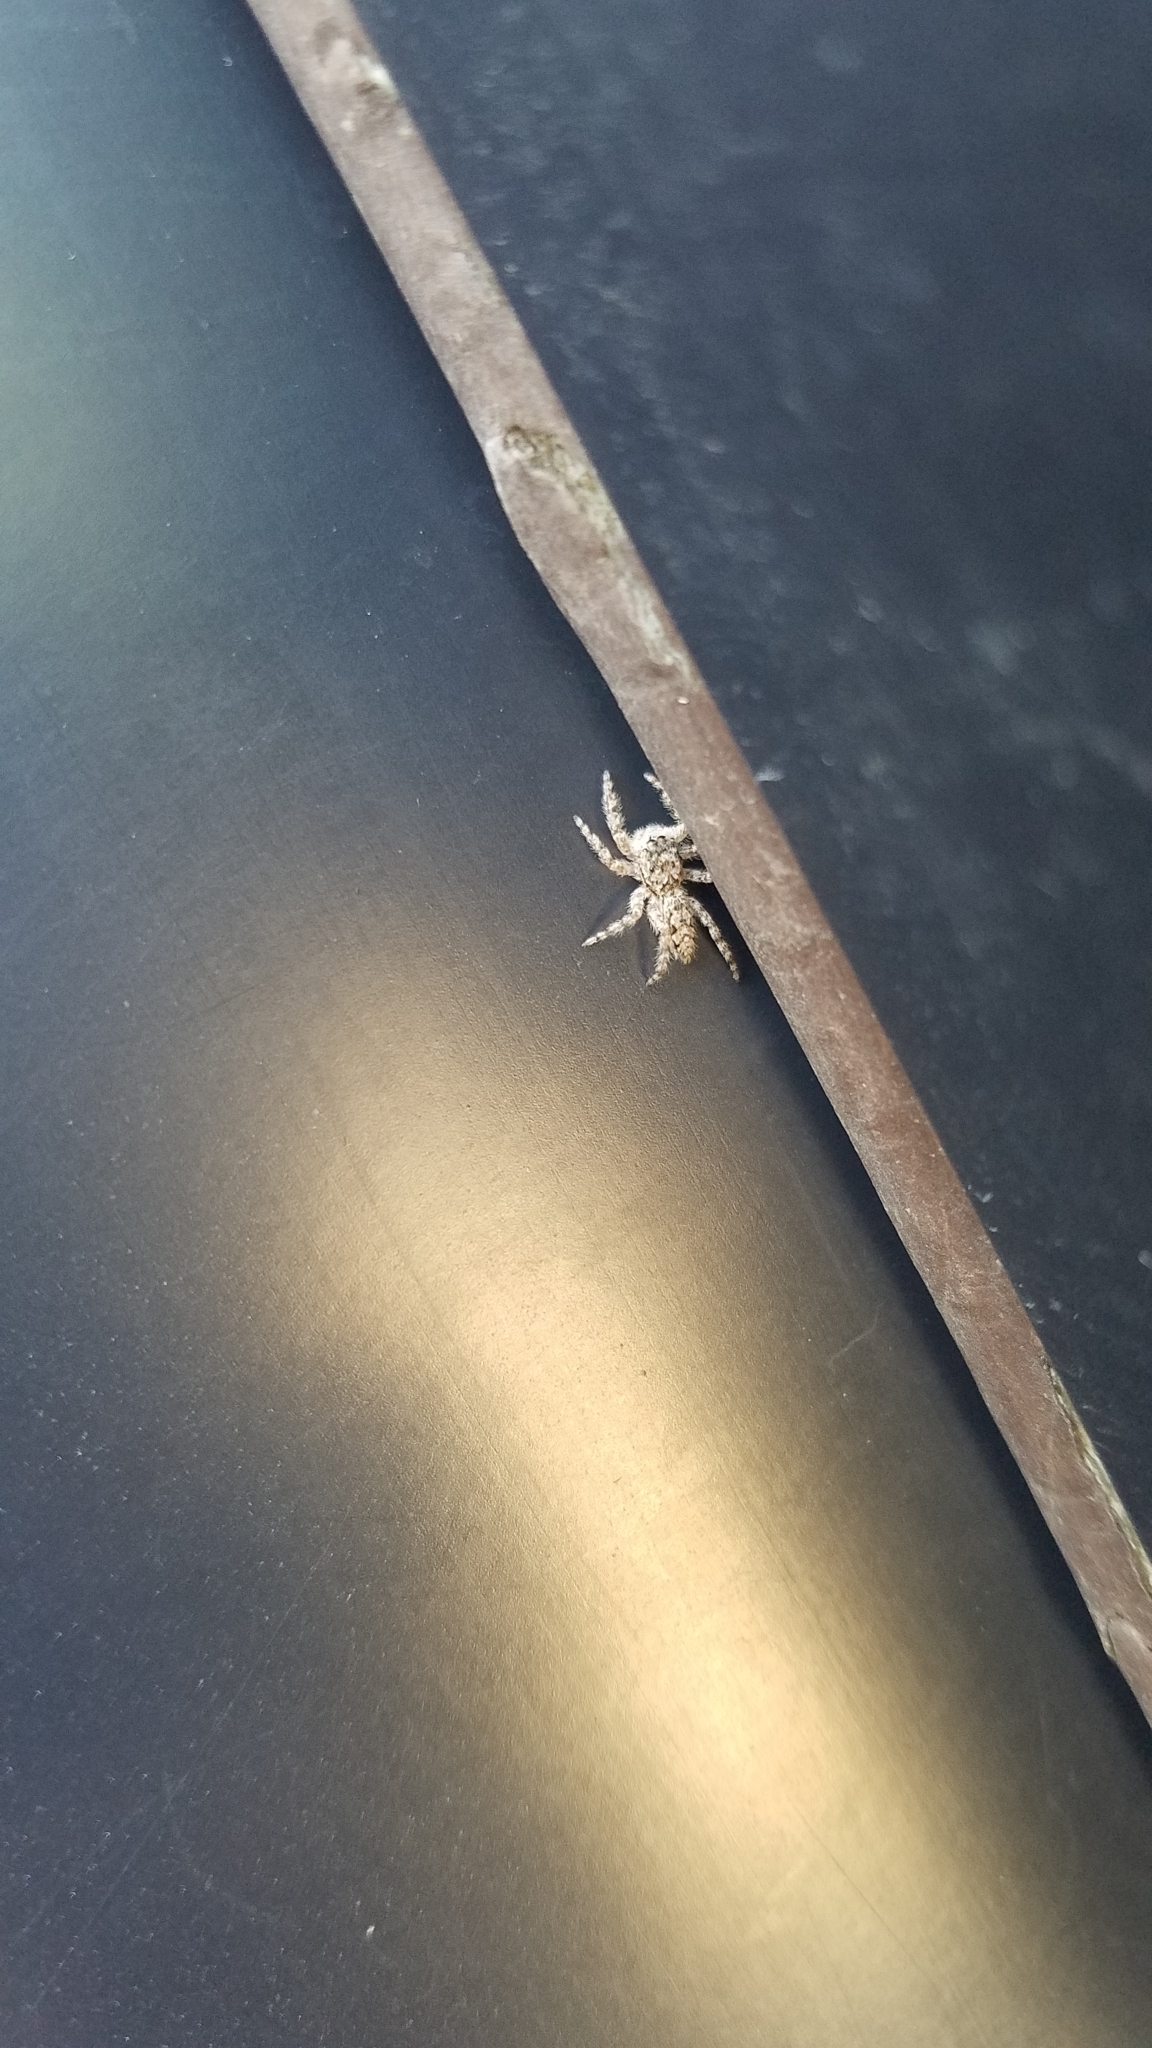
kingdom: Animalia
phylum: Arthropoda
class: Arachnida
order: Araneae
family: Salticidae
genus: Platycryptus
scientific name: Platycryptus undatus
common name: Tan jumping spider
